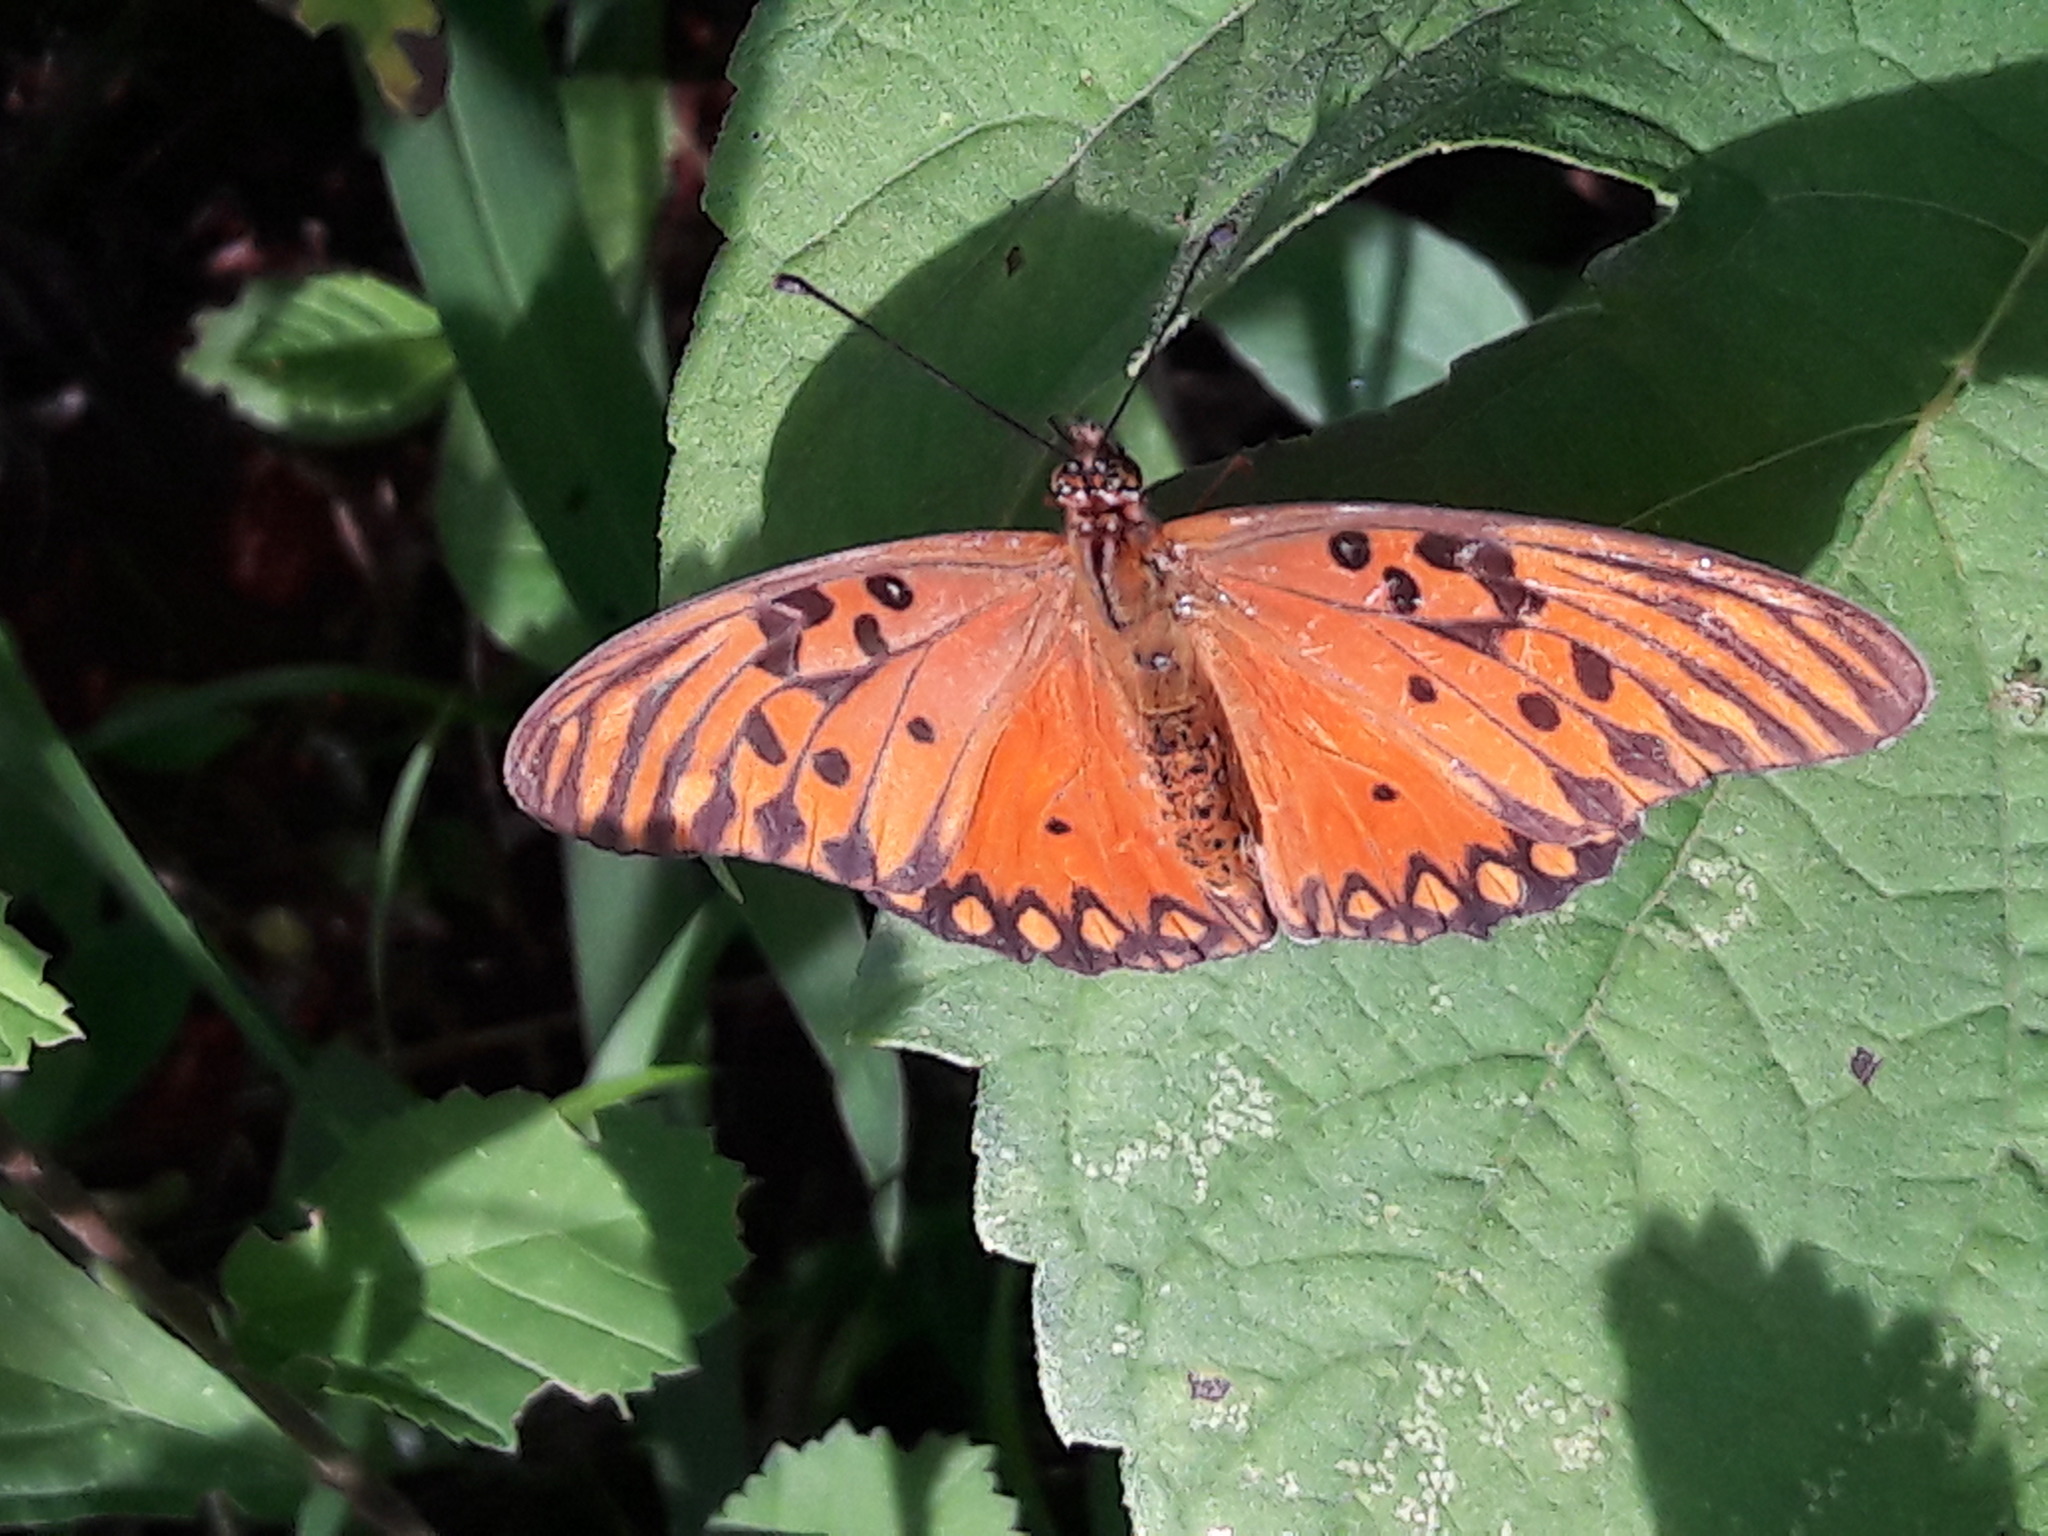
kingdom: Animalia
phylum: Arthropoda
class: Insecta
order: Lepidoptera
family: Nymphalidae
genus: Dione
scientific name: Dione vanillae
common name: Gulf fritillary
